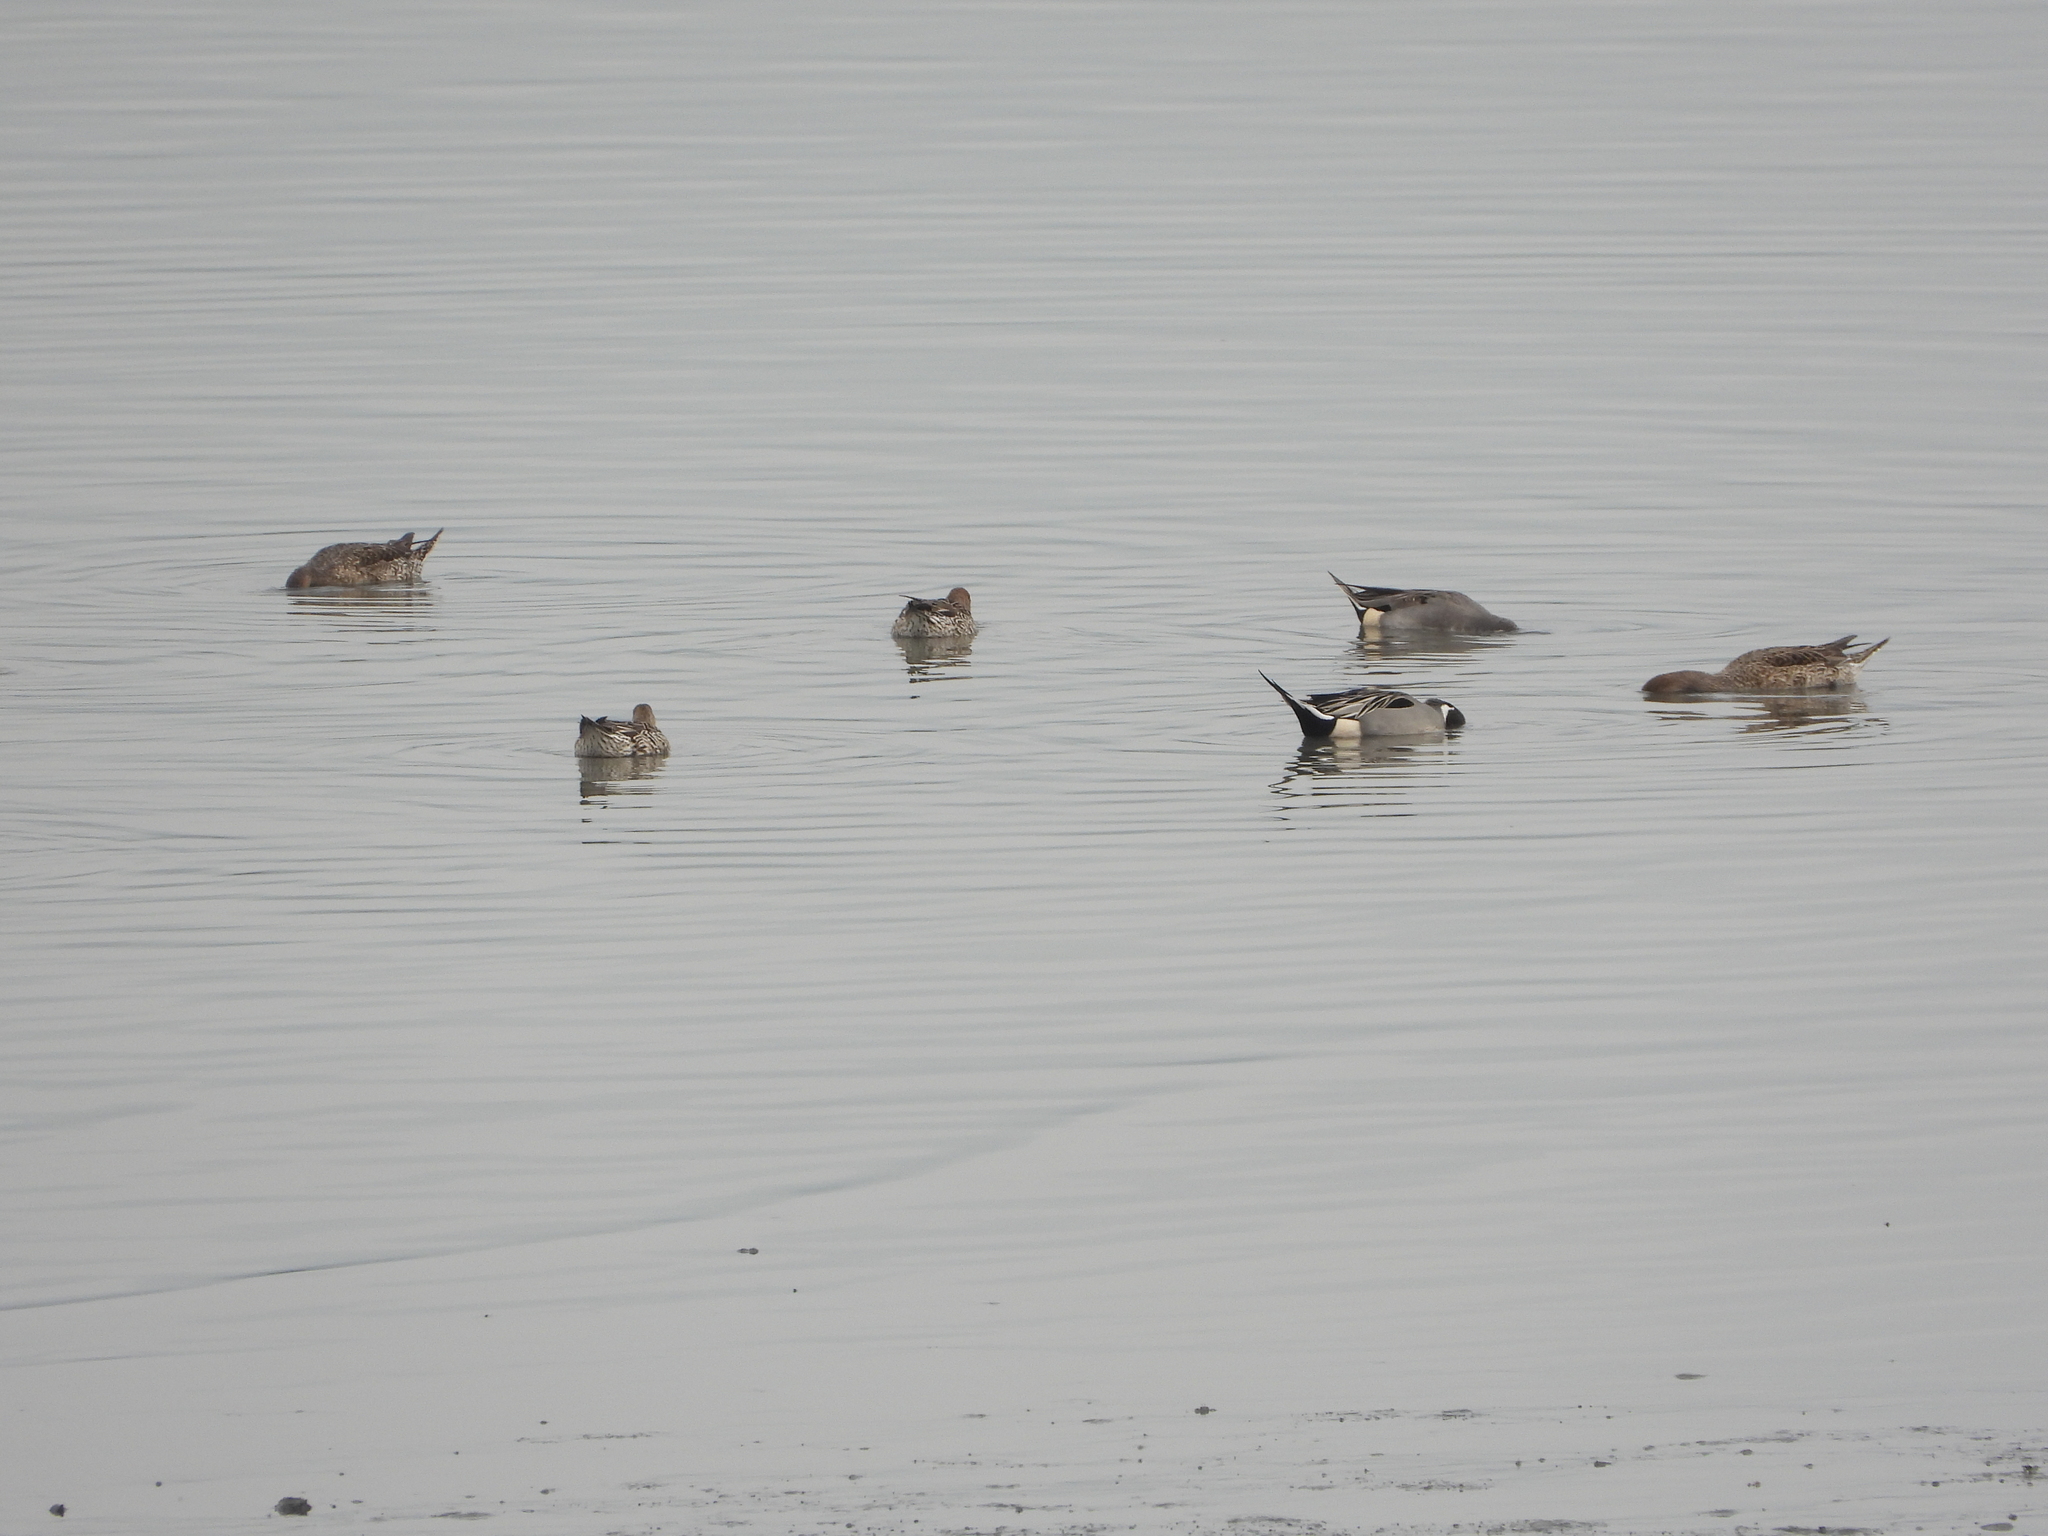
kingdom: Animalia
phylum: Chordata
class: Aves
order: Anseriformes
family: Anatidae
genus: Anas
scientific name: Anas acuta
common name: Northern pintail
